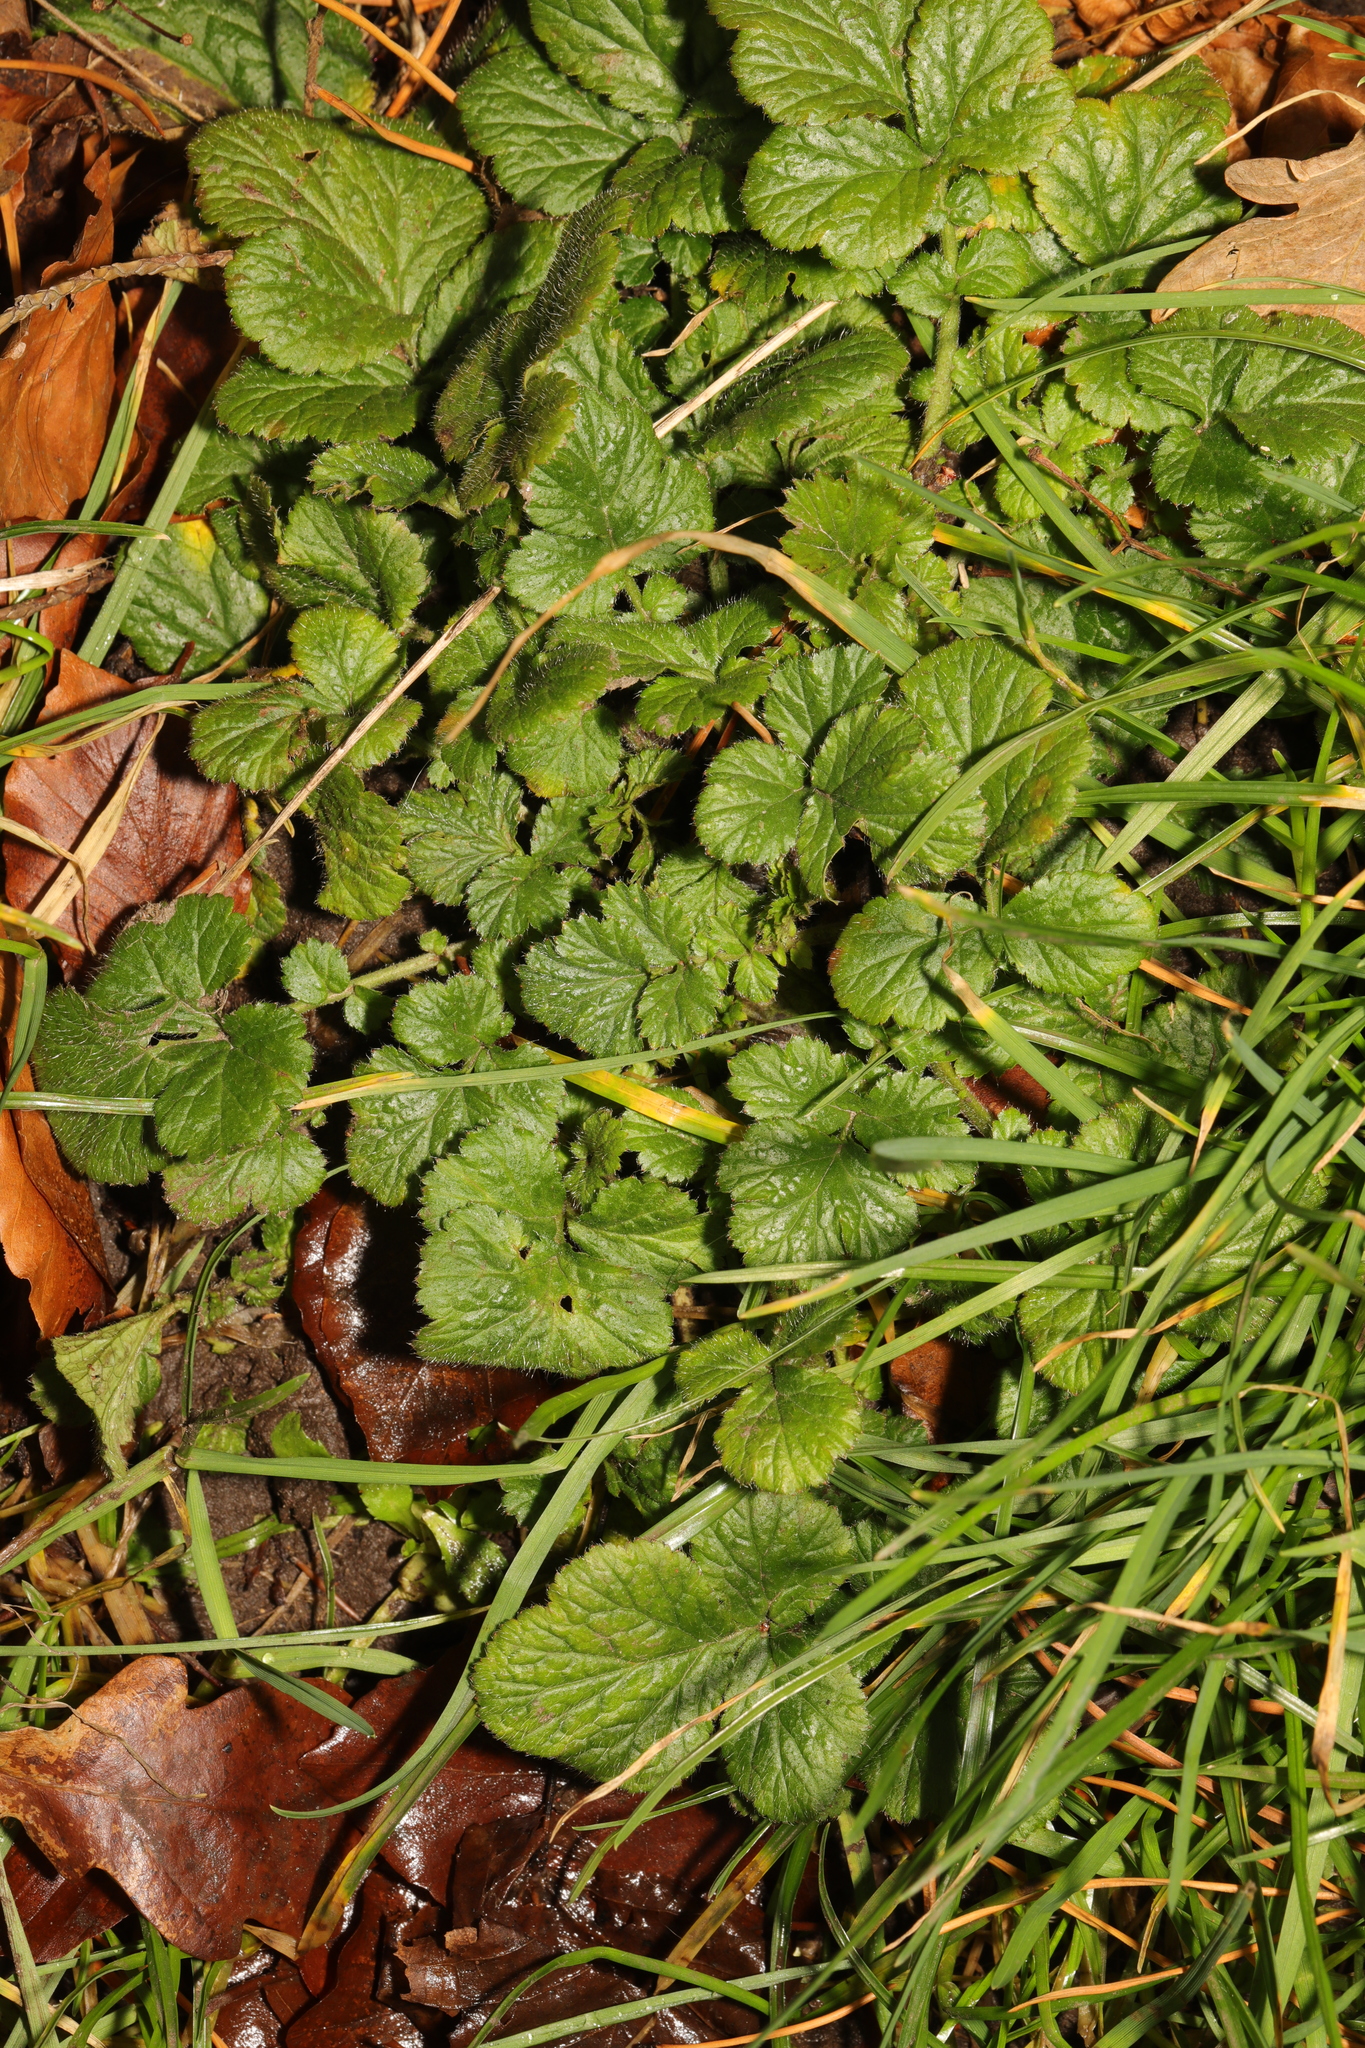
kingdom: Plantae
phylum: Tracheophyta
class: Magnoliopsida
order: Rosales
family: Rosaceae
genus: Geum
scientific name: Geum urbanum
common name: Wood avens
